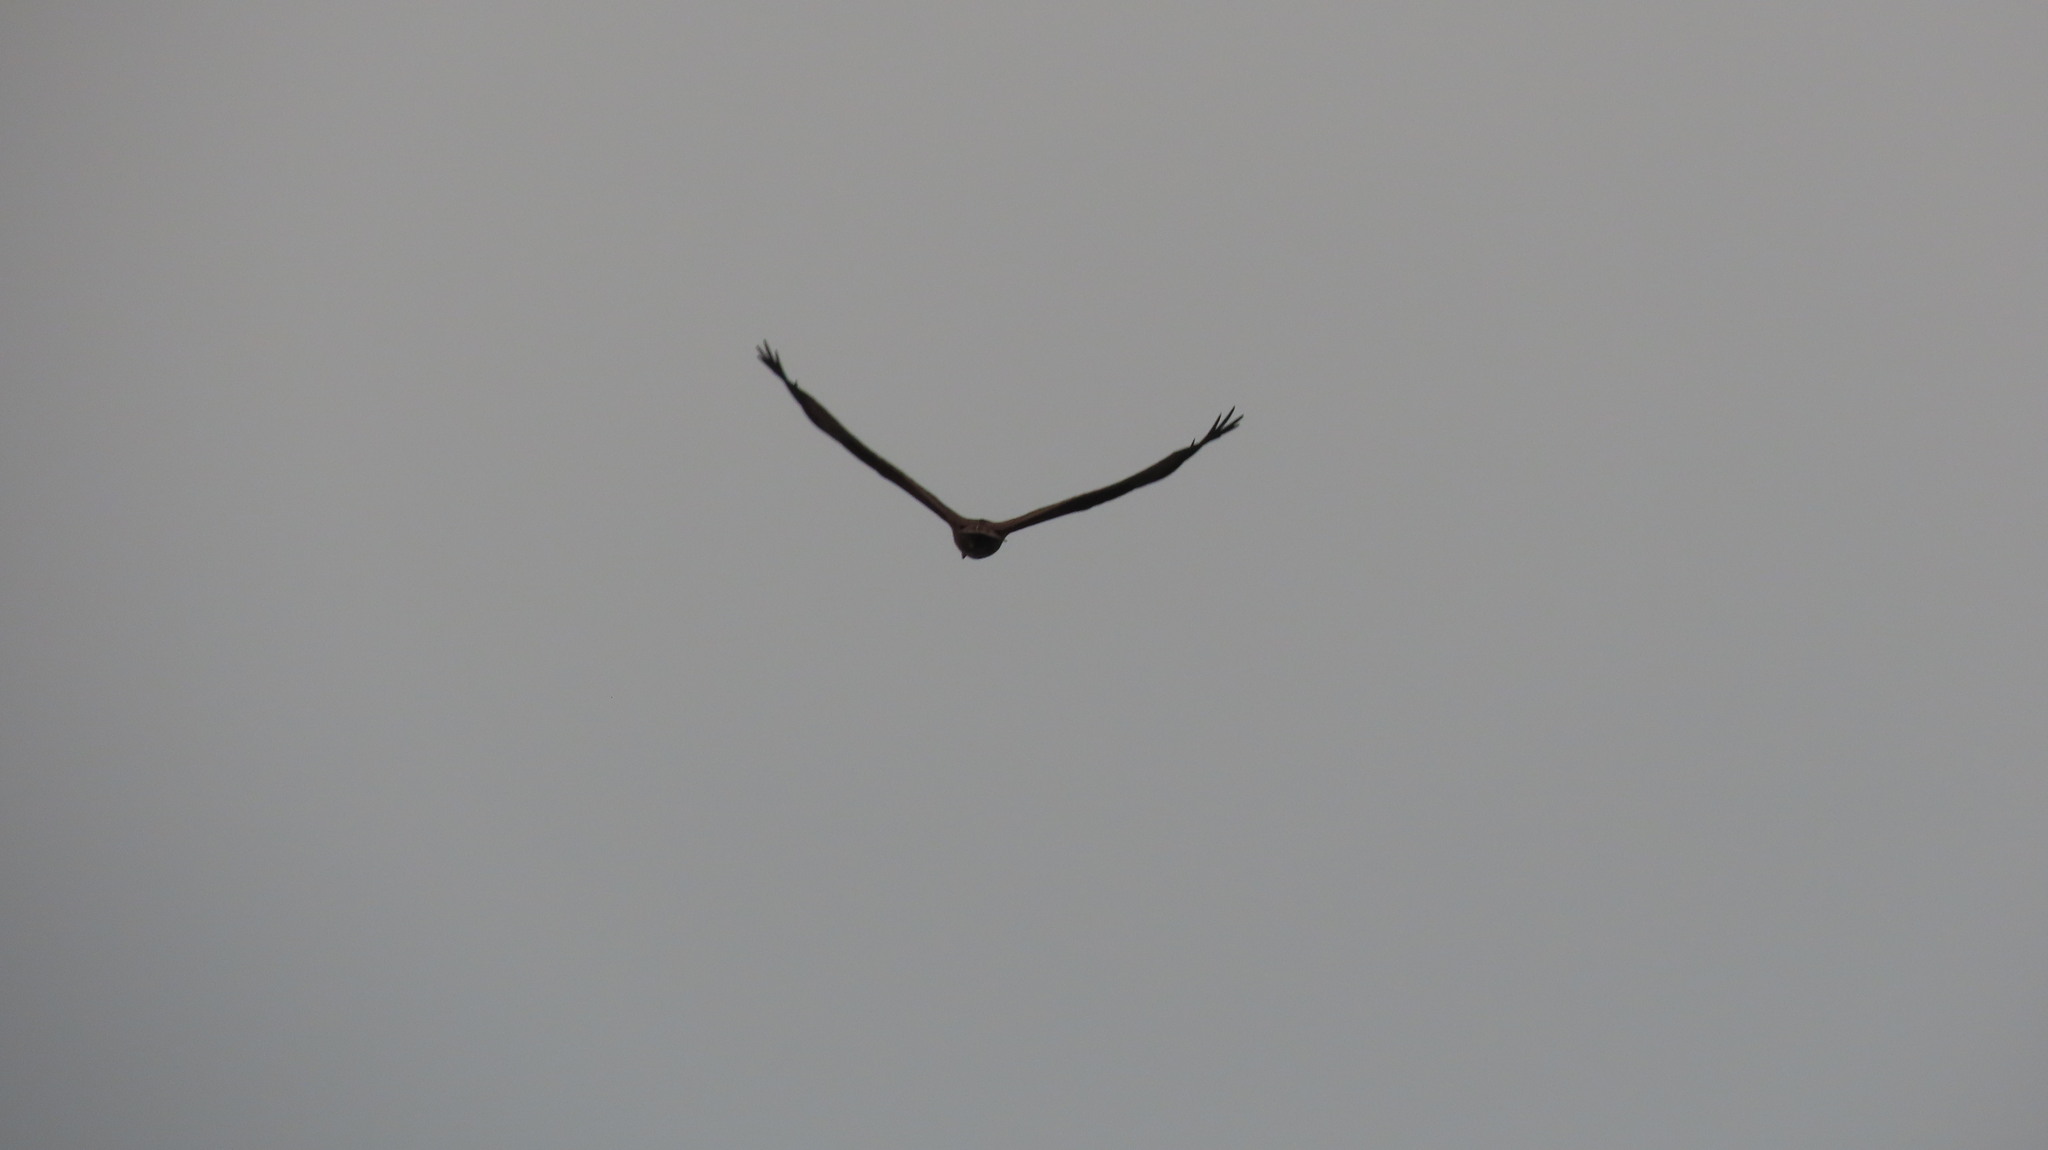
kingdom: Animalia
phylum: Chordata
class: Aves
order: Accipitriformes
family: Accipitridae
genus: Haliastur
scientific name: Haliastur indus
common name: Brahminy kite
